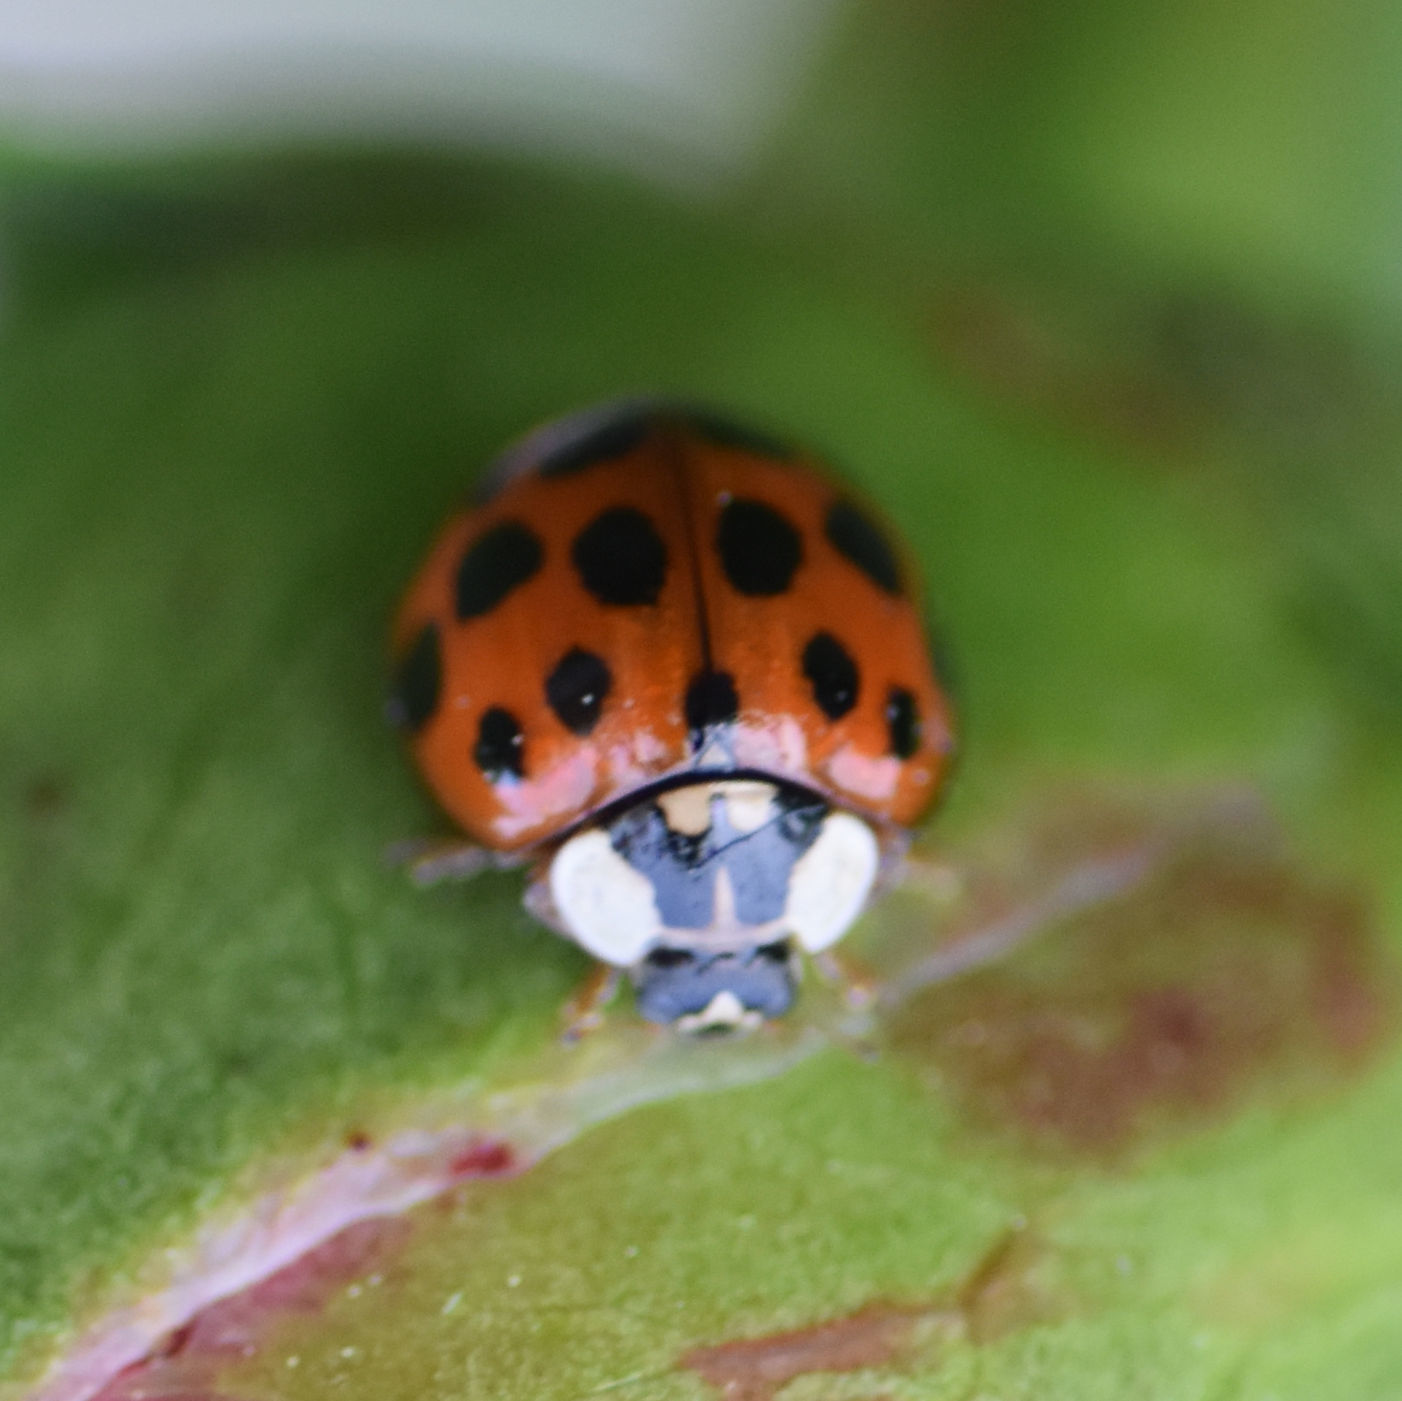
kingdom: Animalia
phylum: Arthropoda
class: Insecta
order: Coleoptera
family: Coccinellidae
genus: Harmonia
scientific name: Harmonia axyridis
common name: Harlequin ladybird
